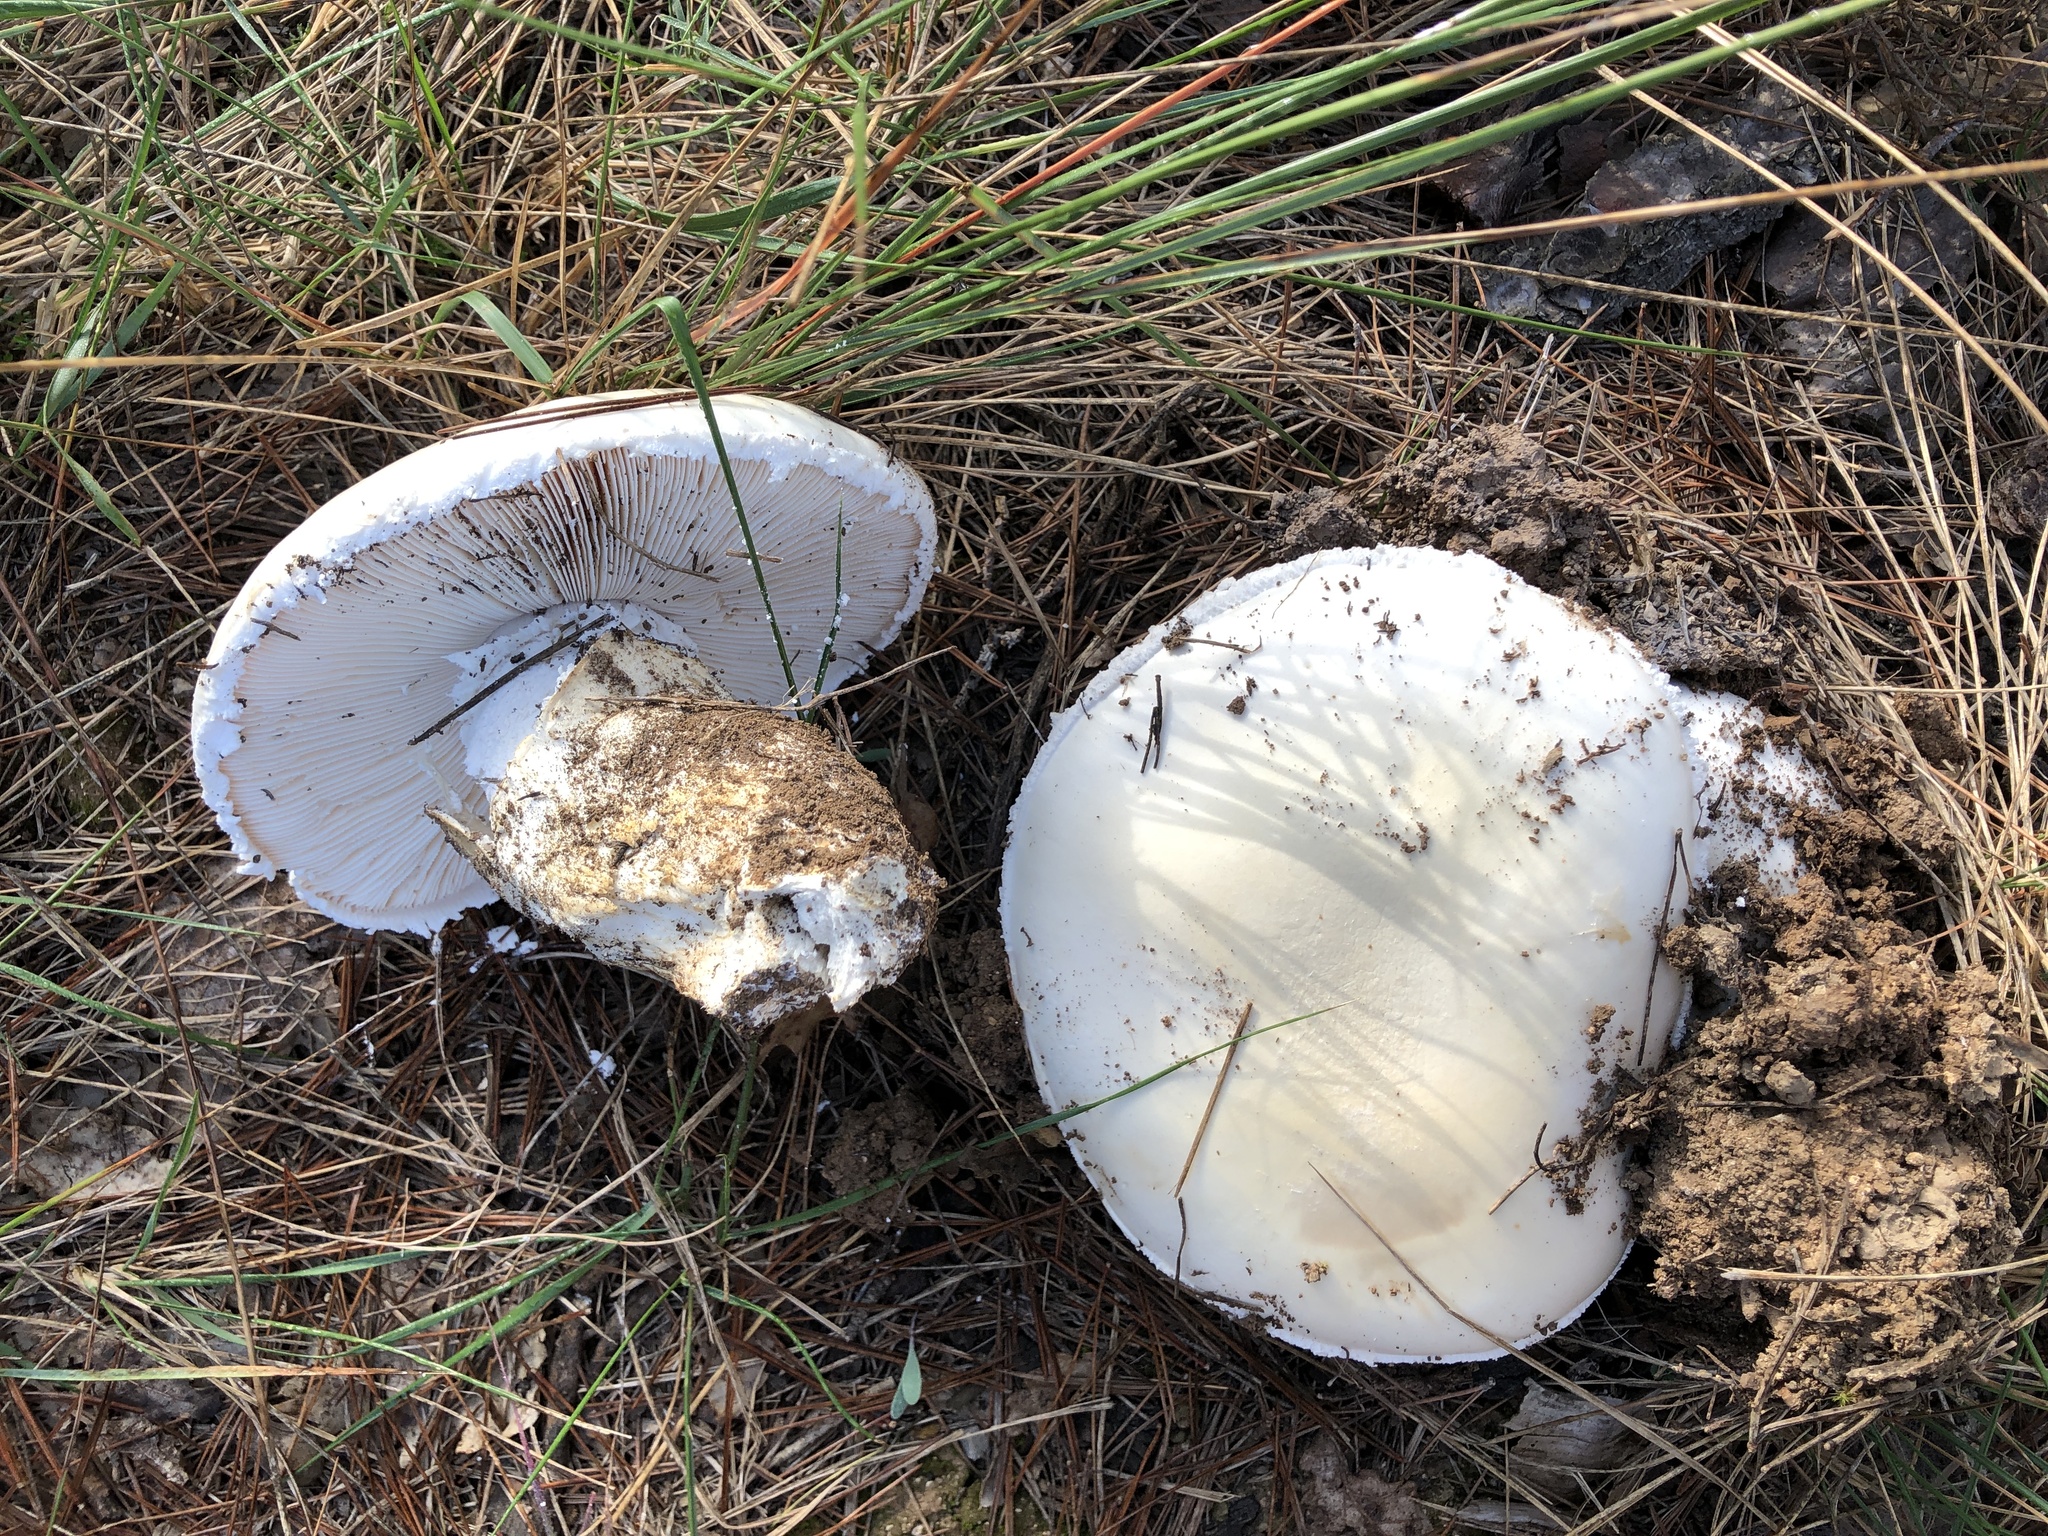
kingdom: Fungi
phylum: Basidiomycota
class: Agaricomycetes
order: Agaricales
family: Amanitaceae
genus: Amanita
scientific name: Amanita ovoidea
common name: Bearded amanita
